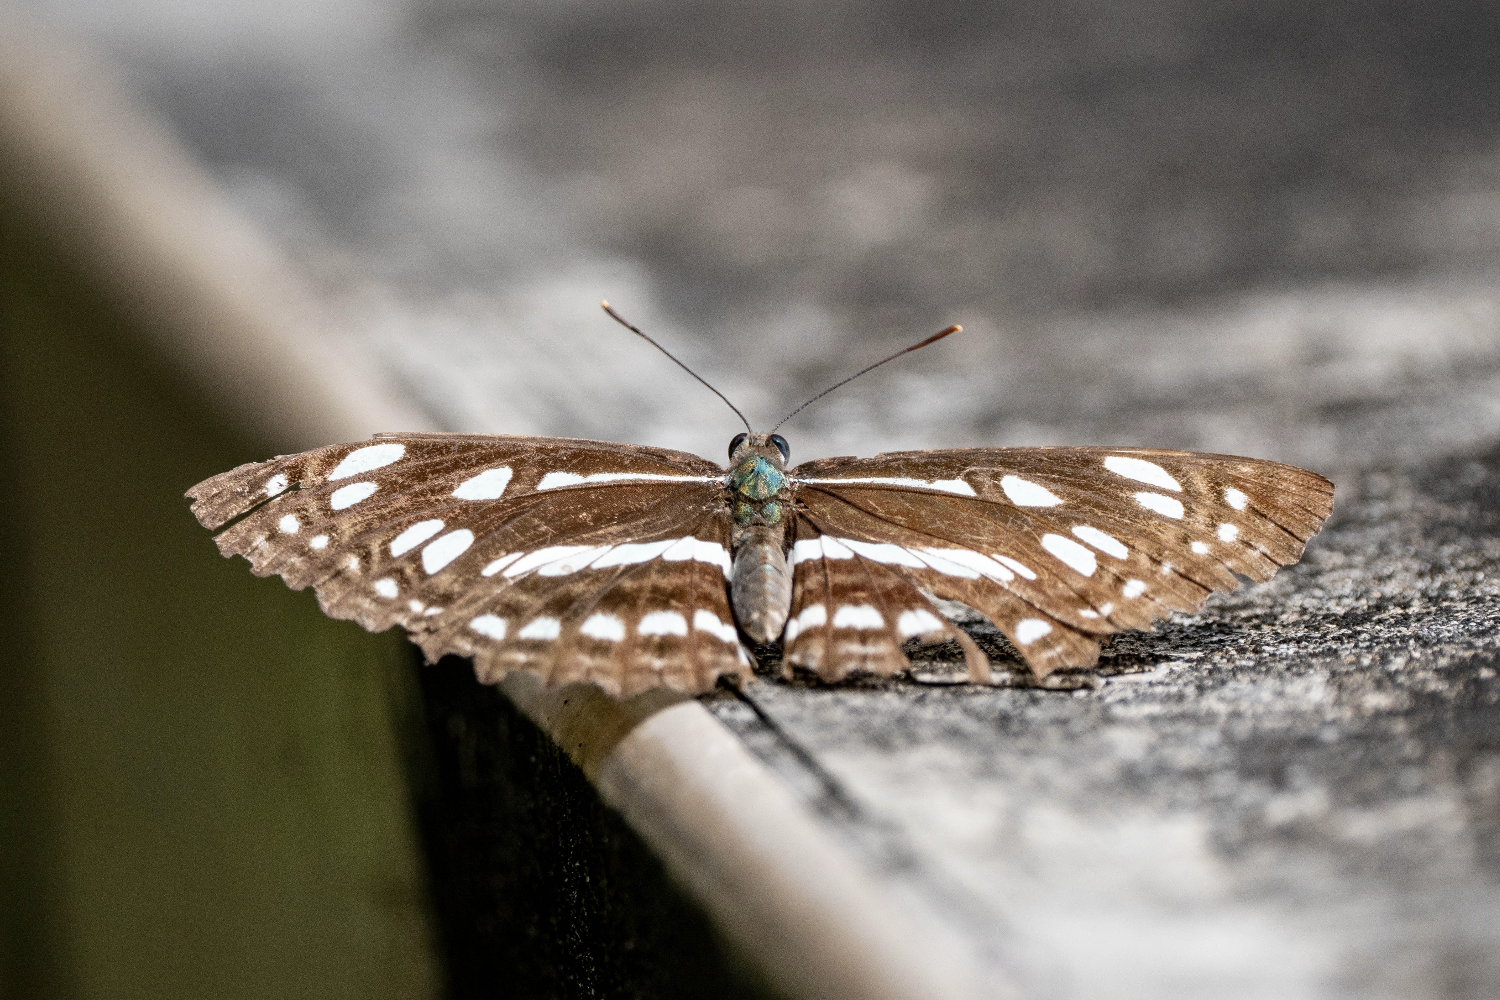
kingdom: Animalia
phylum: Arthropoda
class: Insecta
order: Lepidoptera
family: Nymphalidae
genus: Phaedyma
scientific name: Phaedyma columella
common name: Short banded sailer
